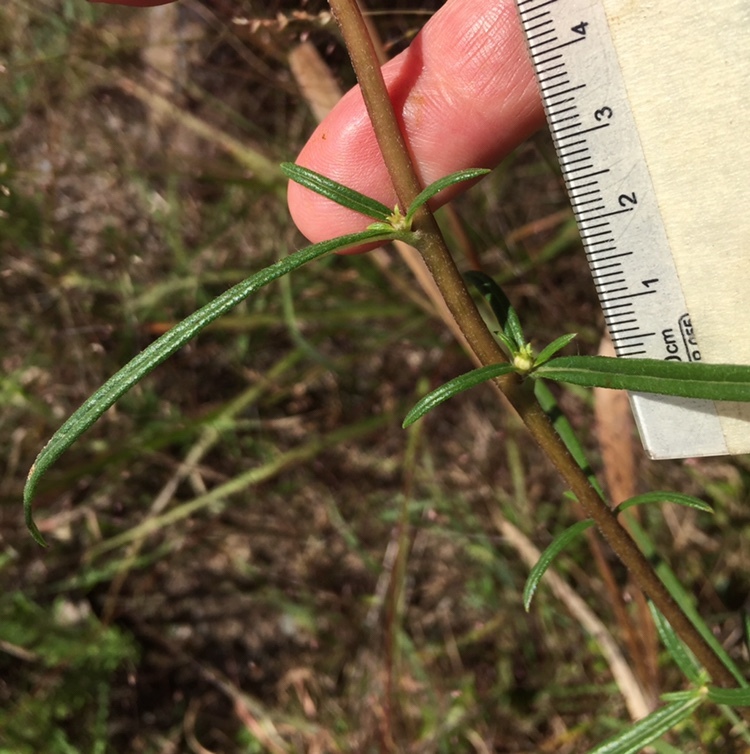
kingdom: Plantae
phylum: Tracheophyta
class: Magnoliopsida
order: Asterales
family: Asteraceae
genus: Helianthus
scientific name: Helianthus angustifolius
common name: Swamp sunflower
